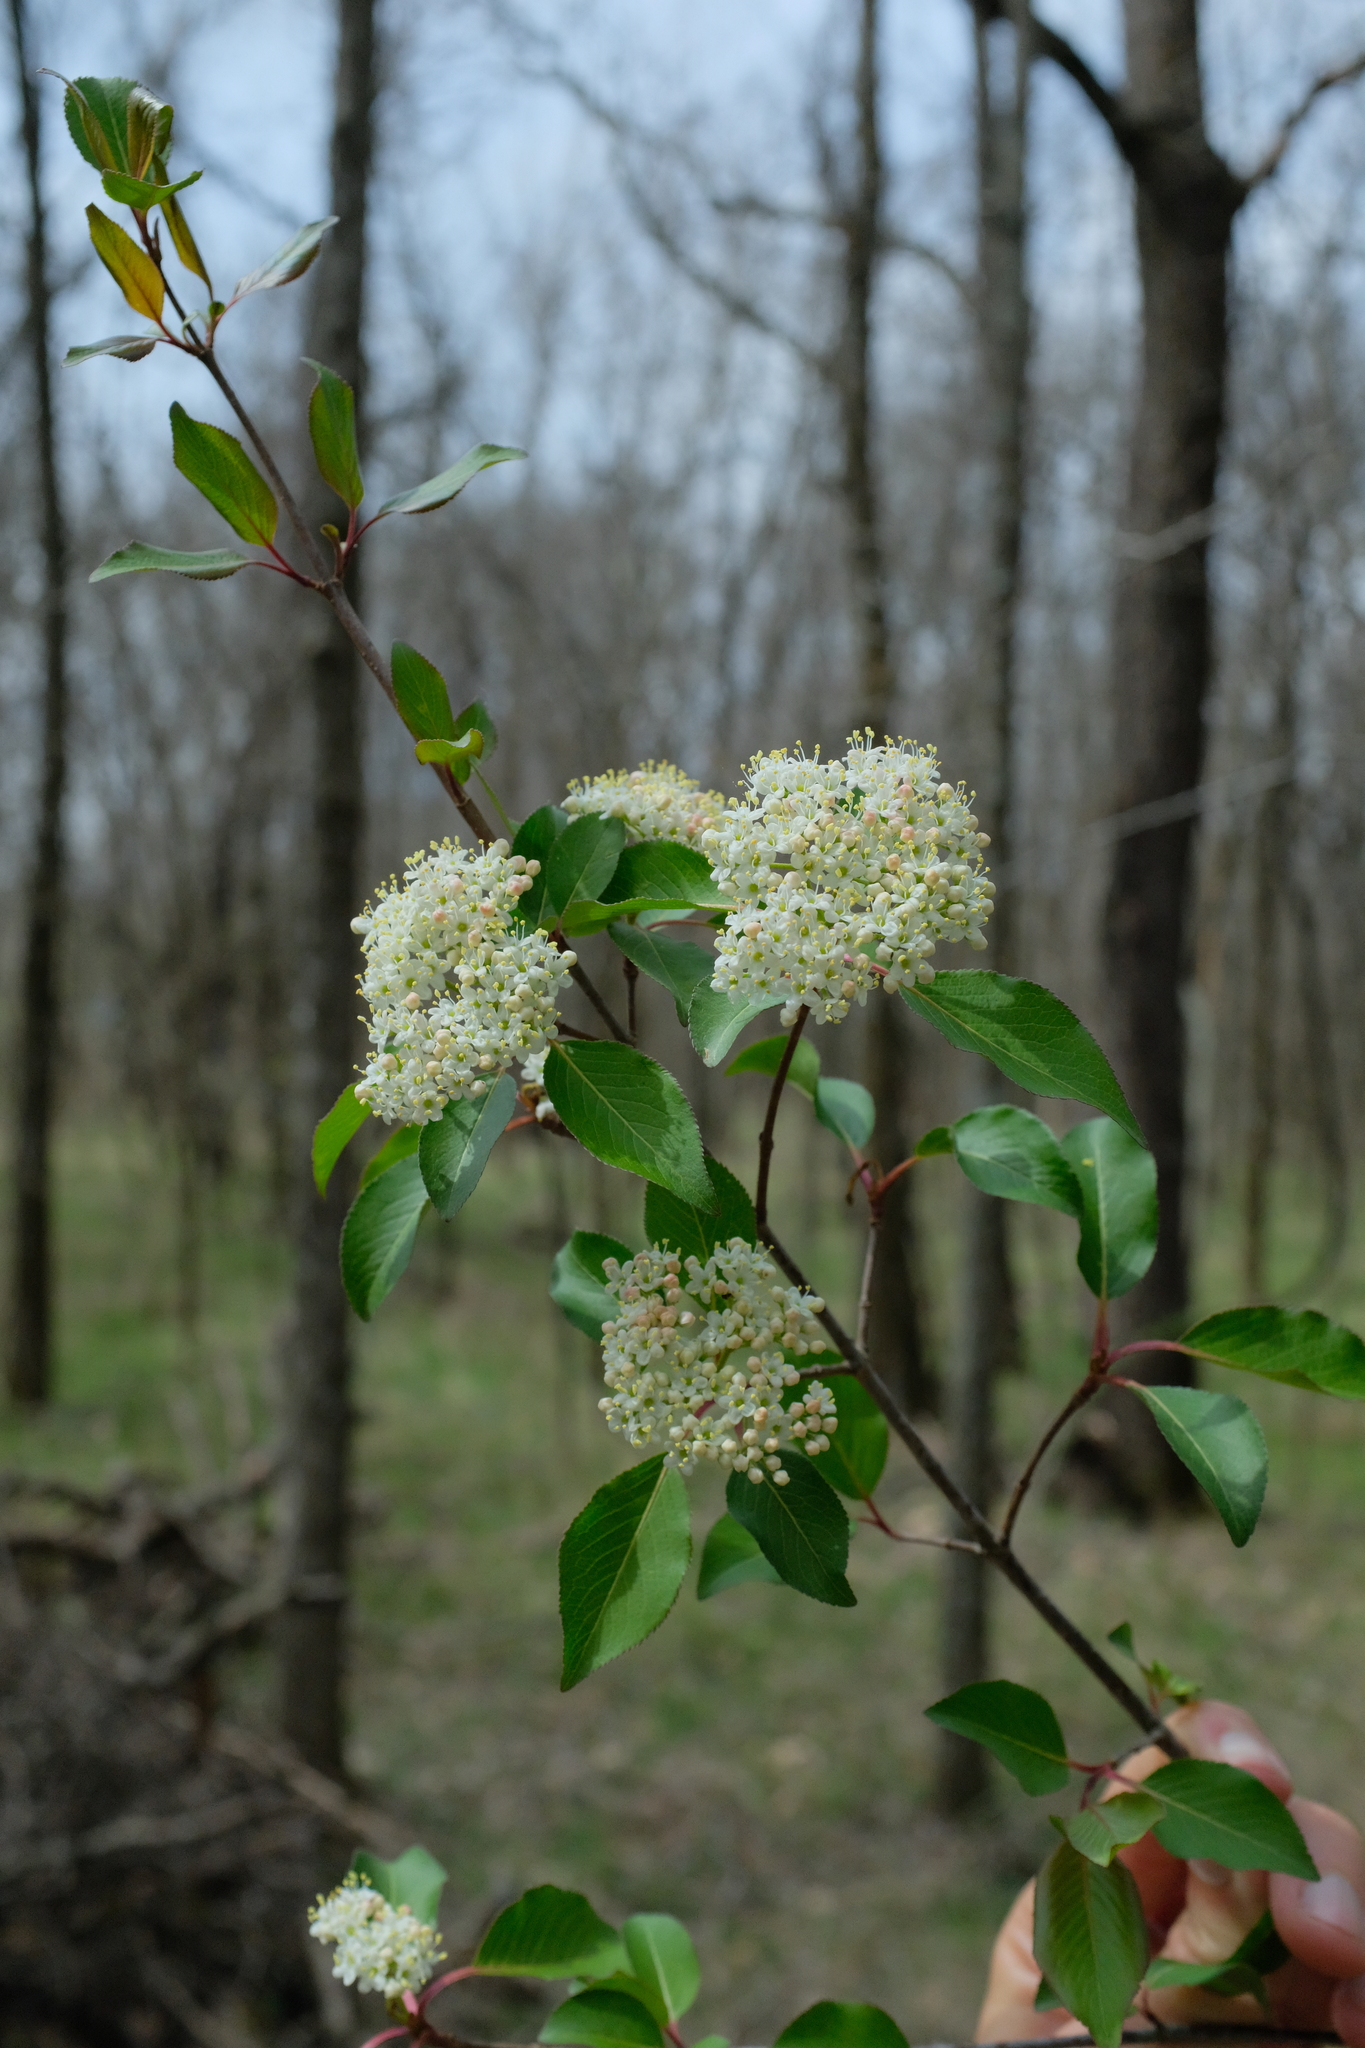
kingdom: Plantae
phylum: Tracheophyta
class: Magnoliopsida
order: Dipsacales
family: Viburnaceae
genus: Viburnum
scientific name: Viburnum prunifolium
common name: Black haw
